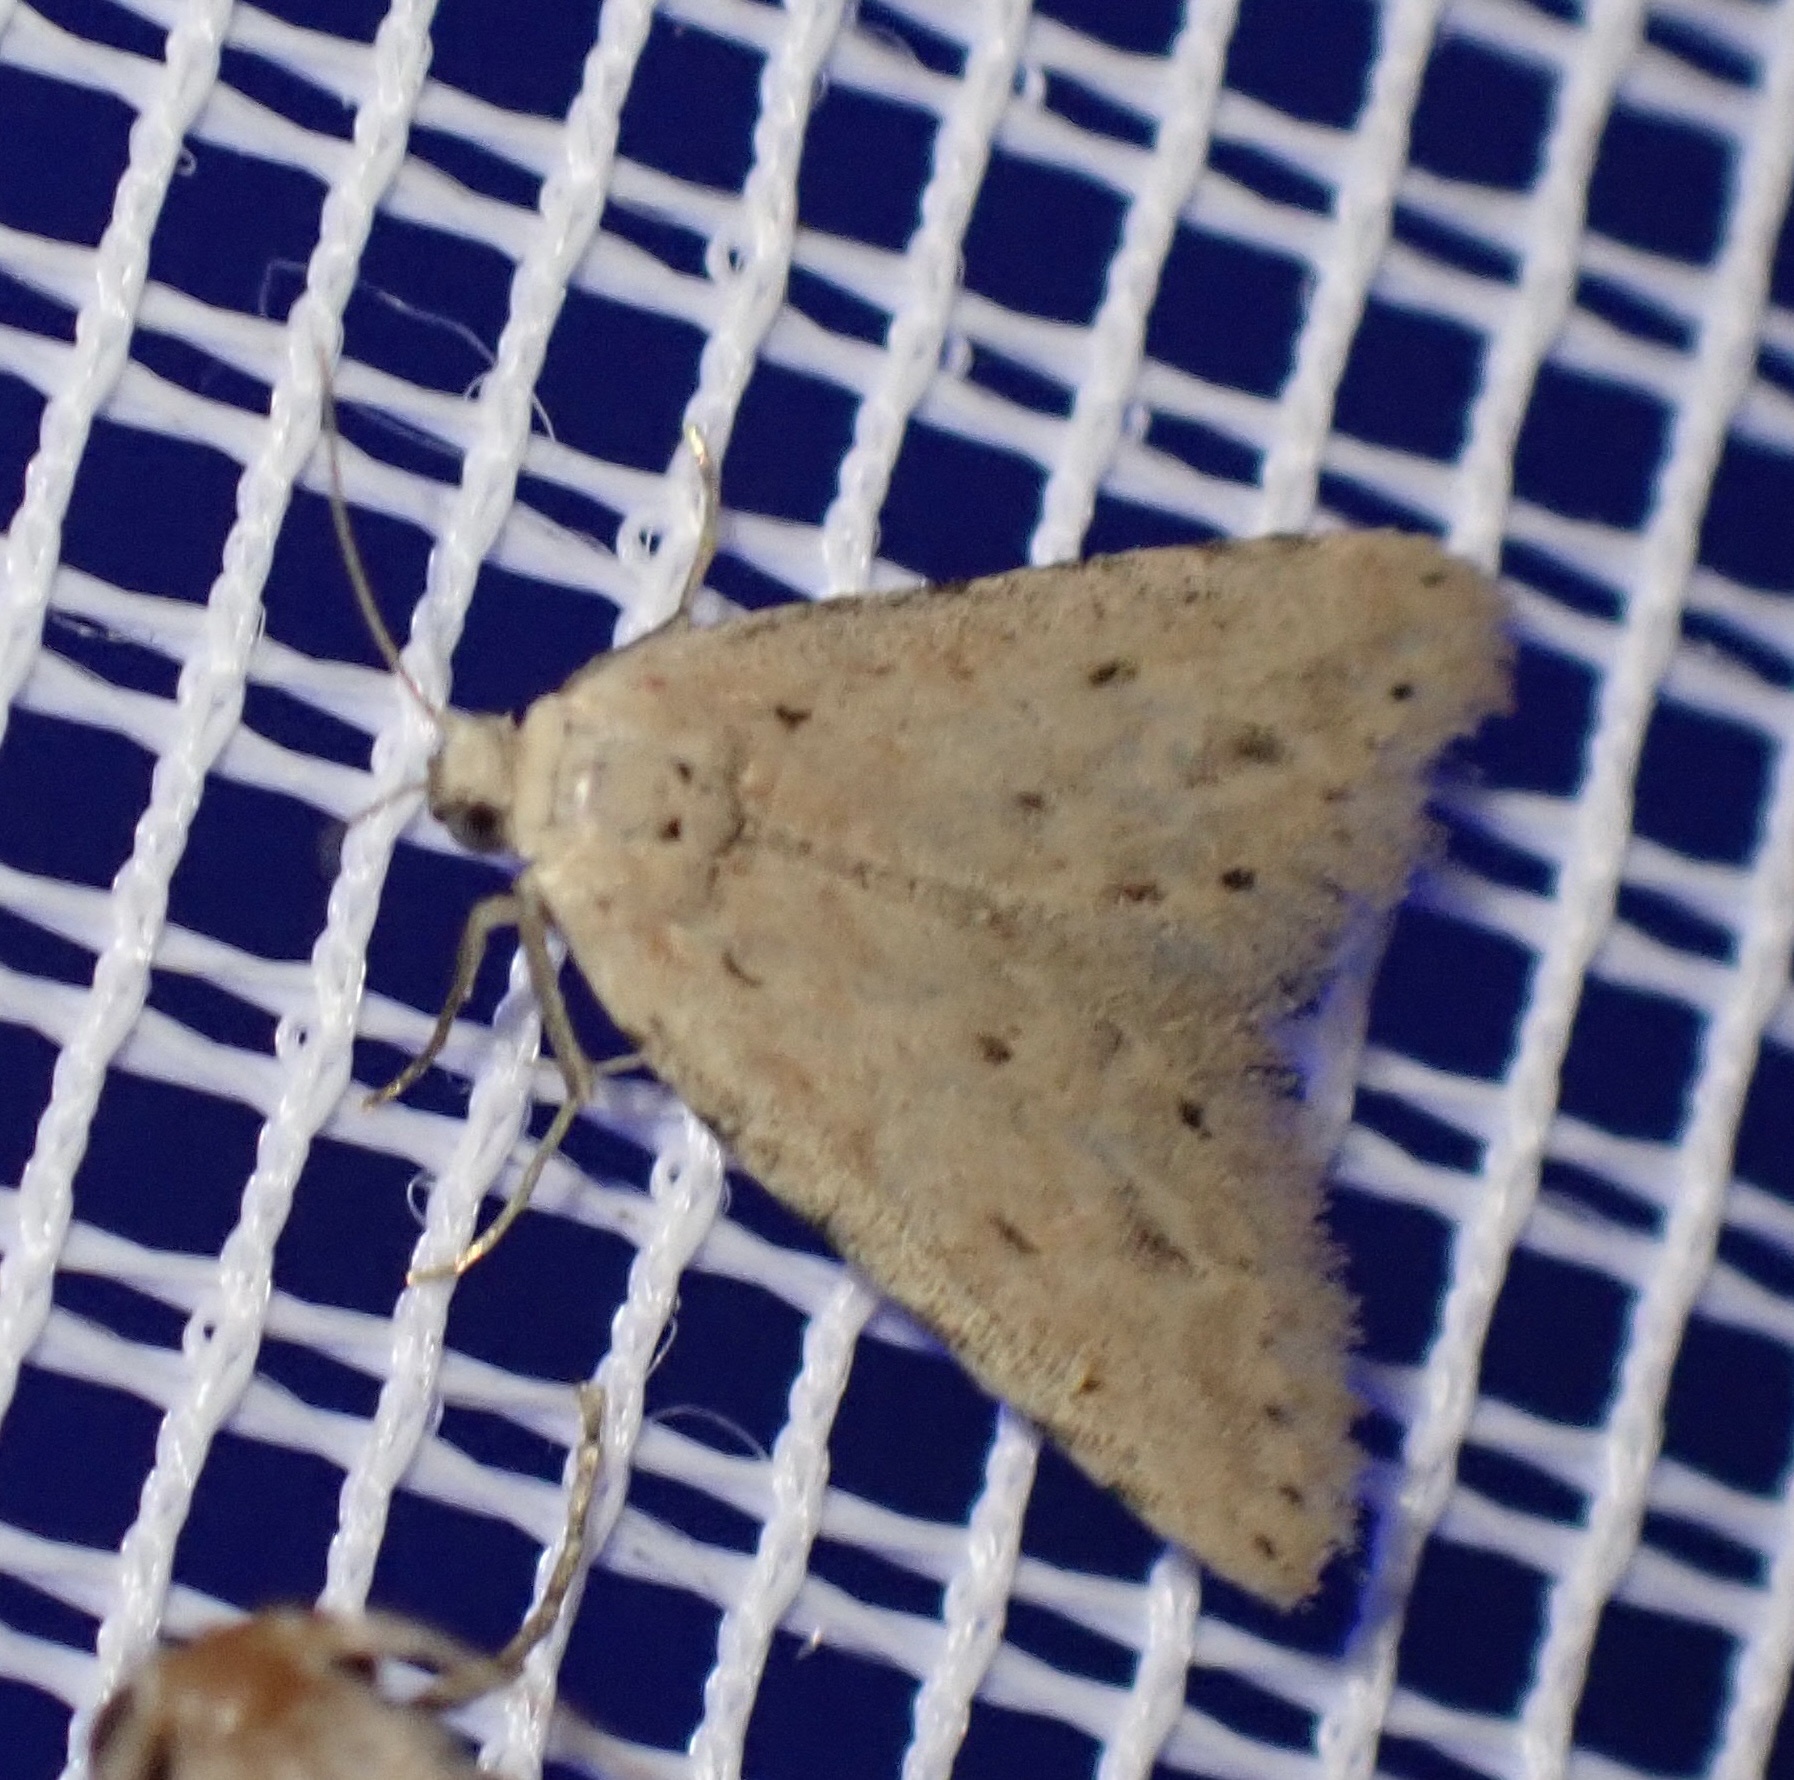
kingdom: Animalia
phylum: Arthropoda
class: Insecta
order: Lepidoptera
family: Noctuidae
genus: Pseudcraspedia
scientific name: Pseudcraspedia punctata
